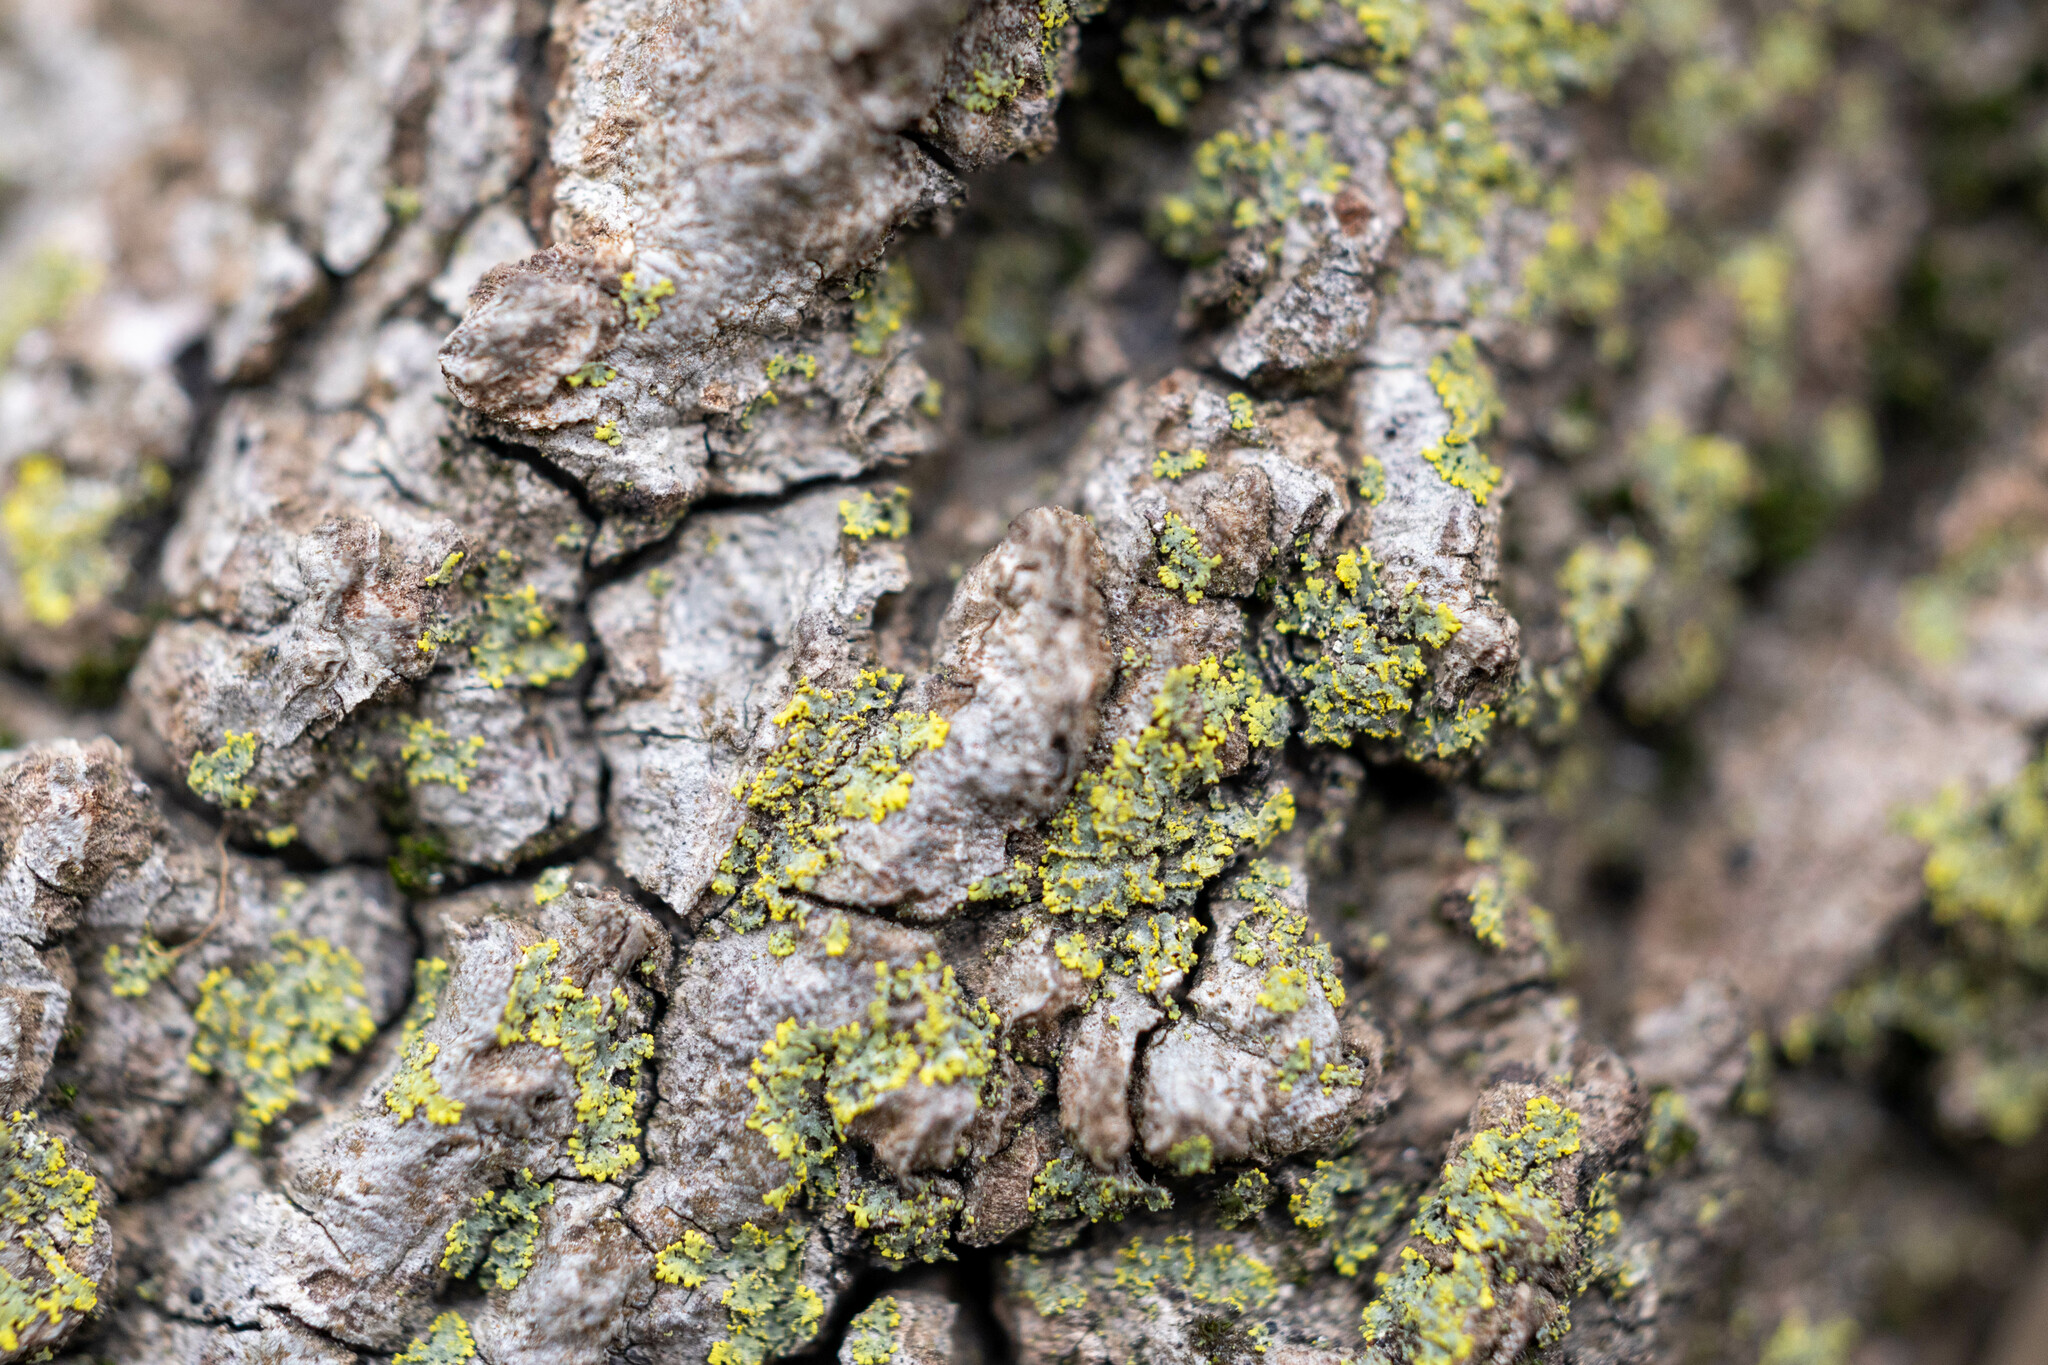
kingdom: Fungi
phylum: Ascomycota
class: Candelariomycetes
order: Candelariales
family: Candelariaceae
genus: Candelaria
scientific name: Candelaria concolor
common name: Candleflame lichen
